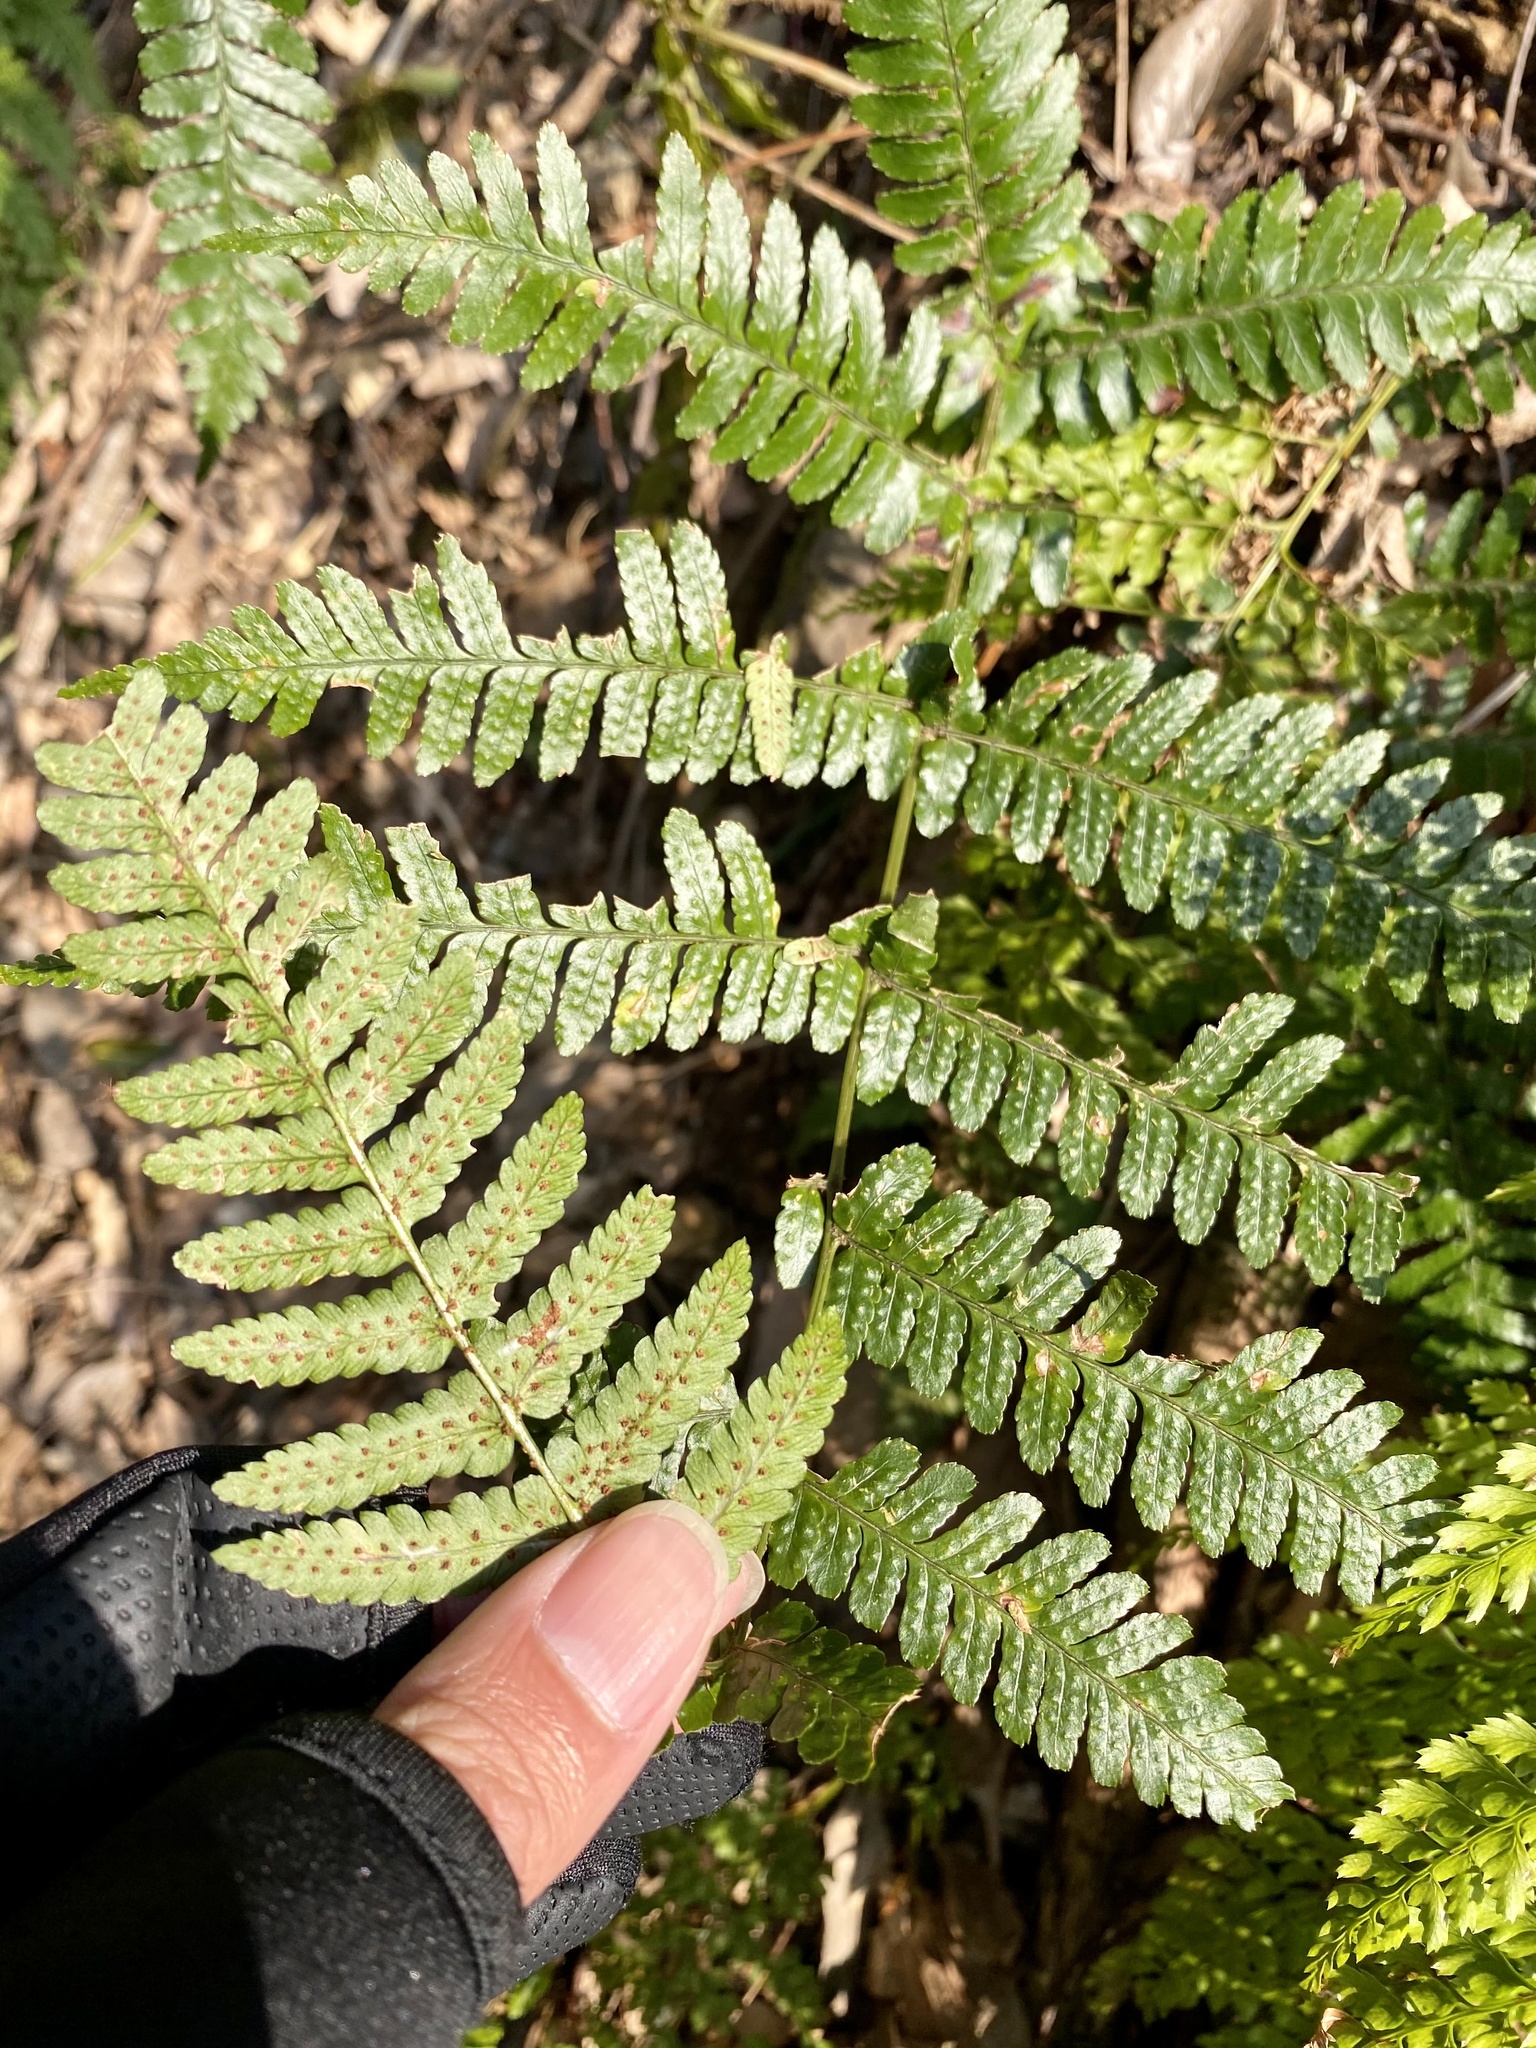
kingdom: Plantae
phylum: Tracheophyta
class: Polypodiopsida
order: Polypodiales
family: Dryopteridaceae
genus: Dryopteris
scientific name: Dryopteris erythrosora
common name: Autumn fern
